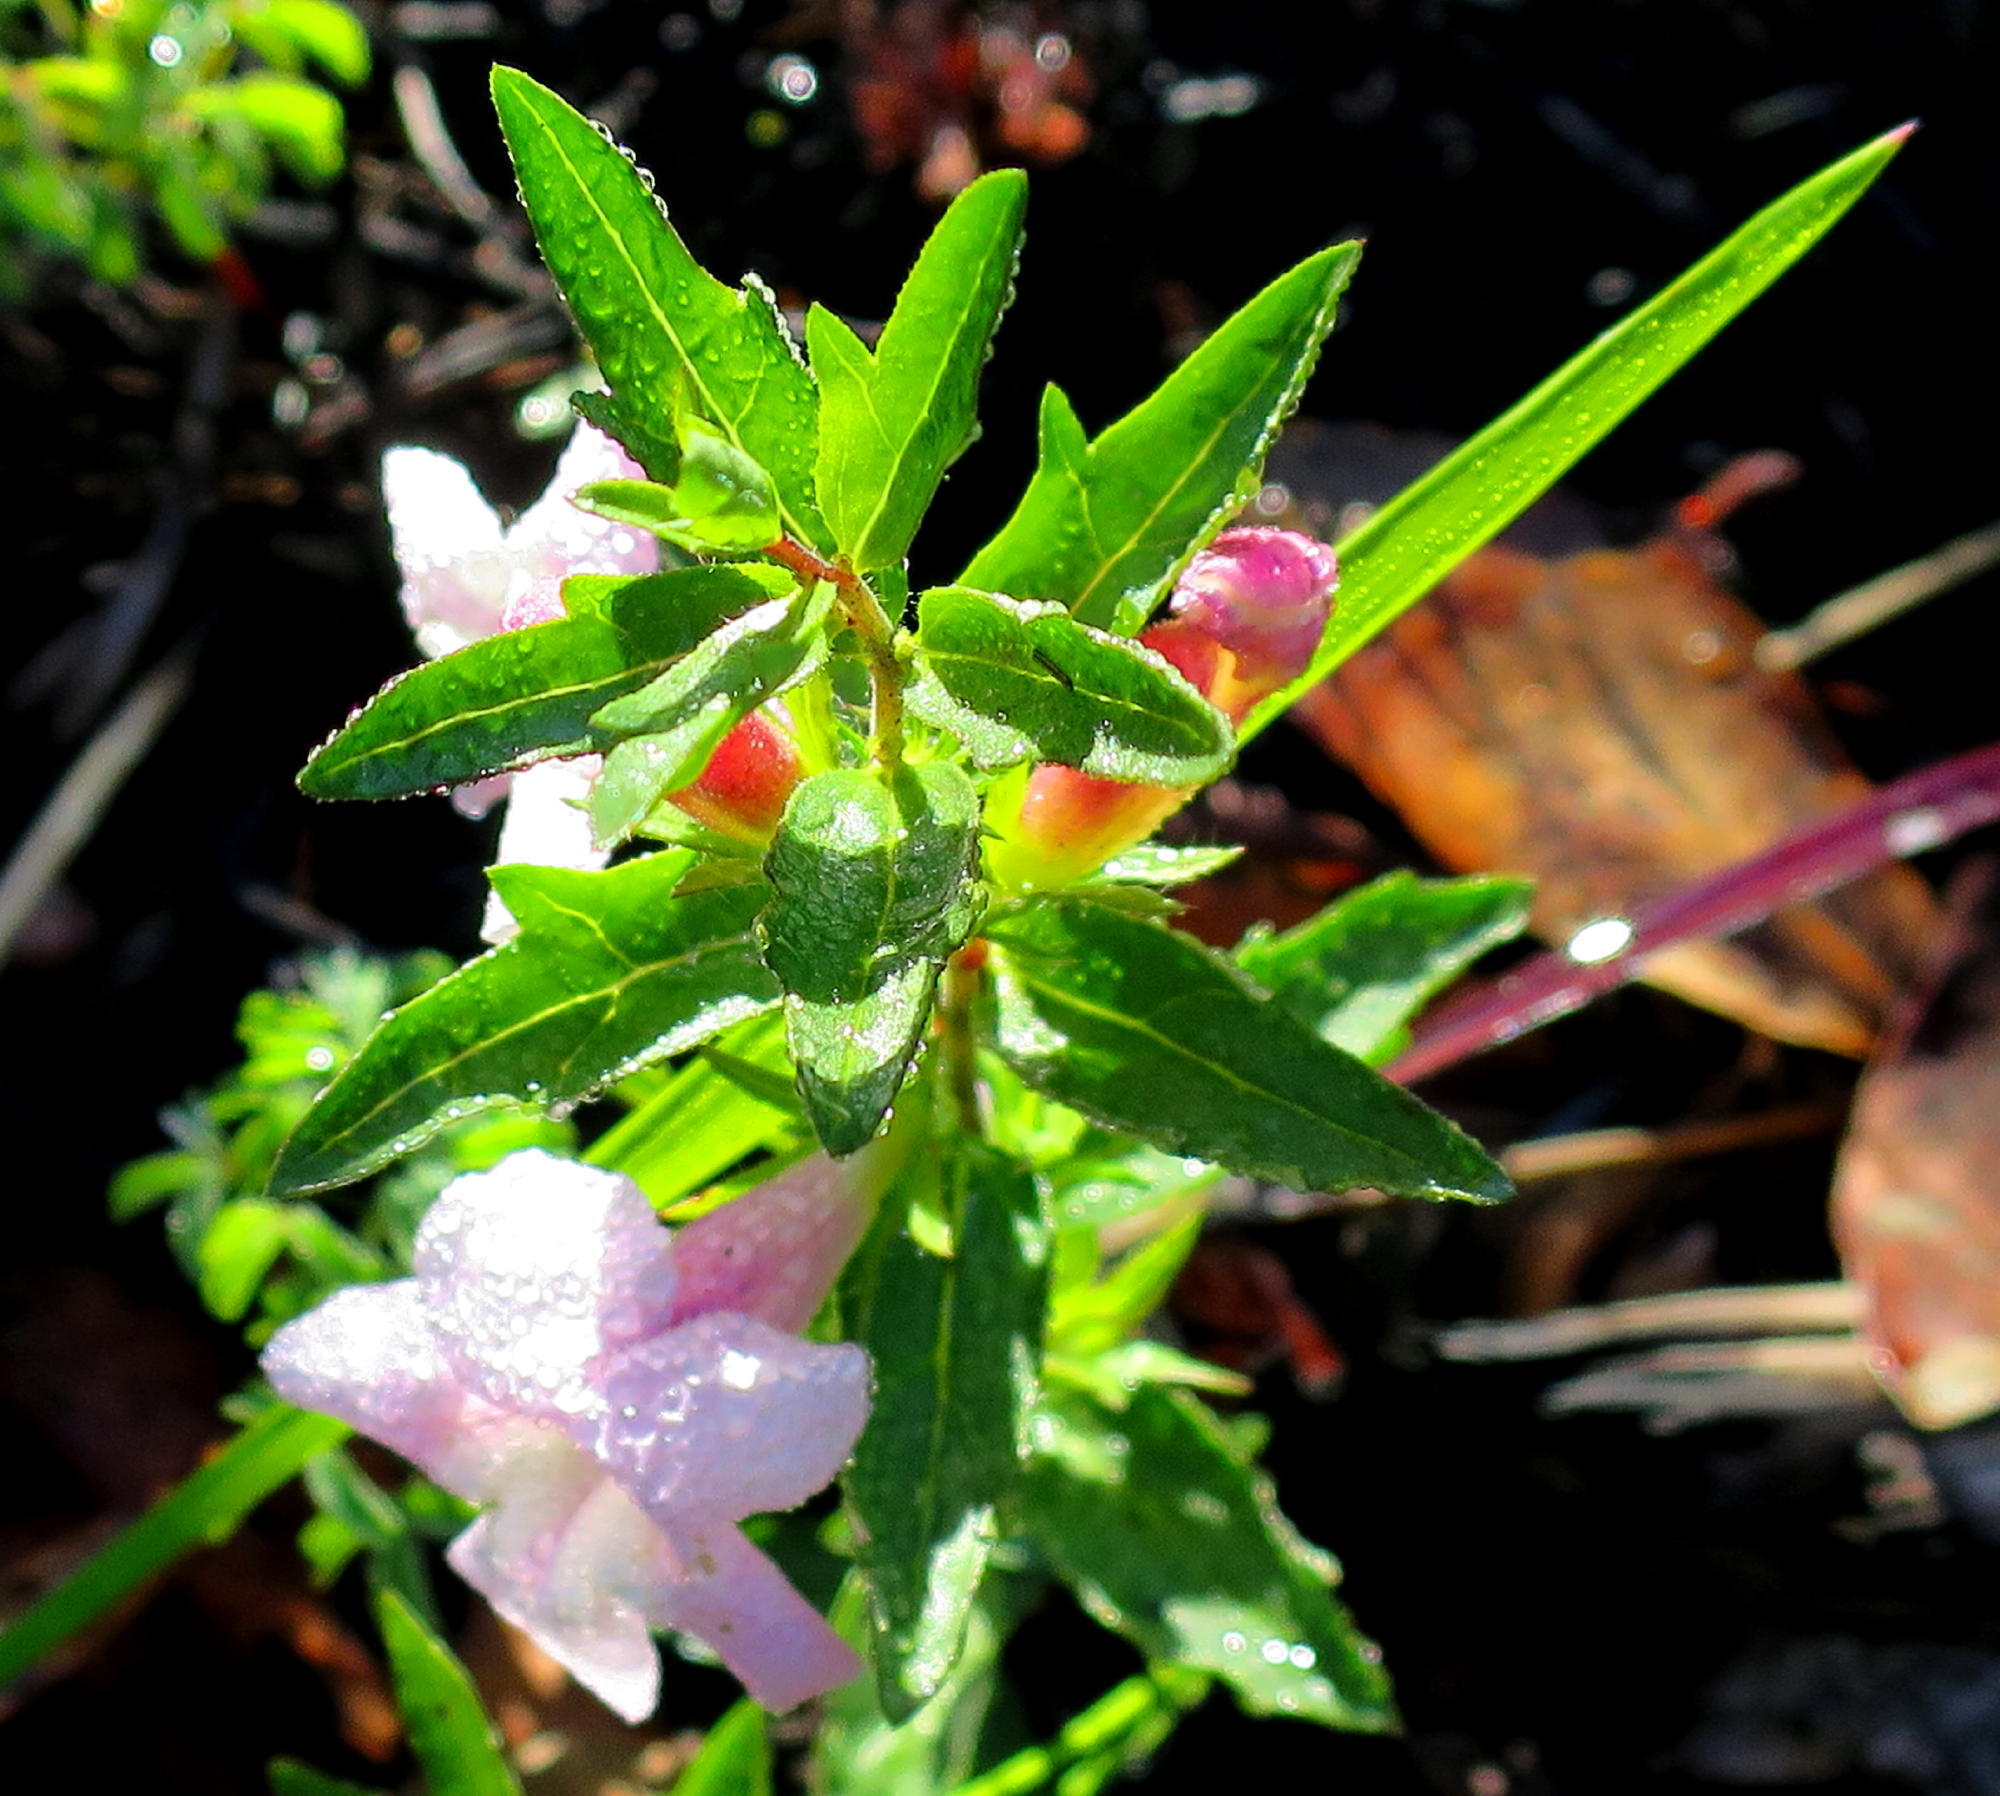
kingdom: Plantae
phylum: Tracheophyta
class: Magnoliopsida
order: Lamiales
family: Orobanchaceae
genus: Graderia
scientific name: Graderia scabra
